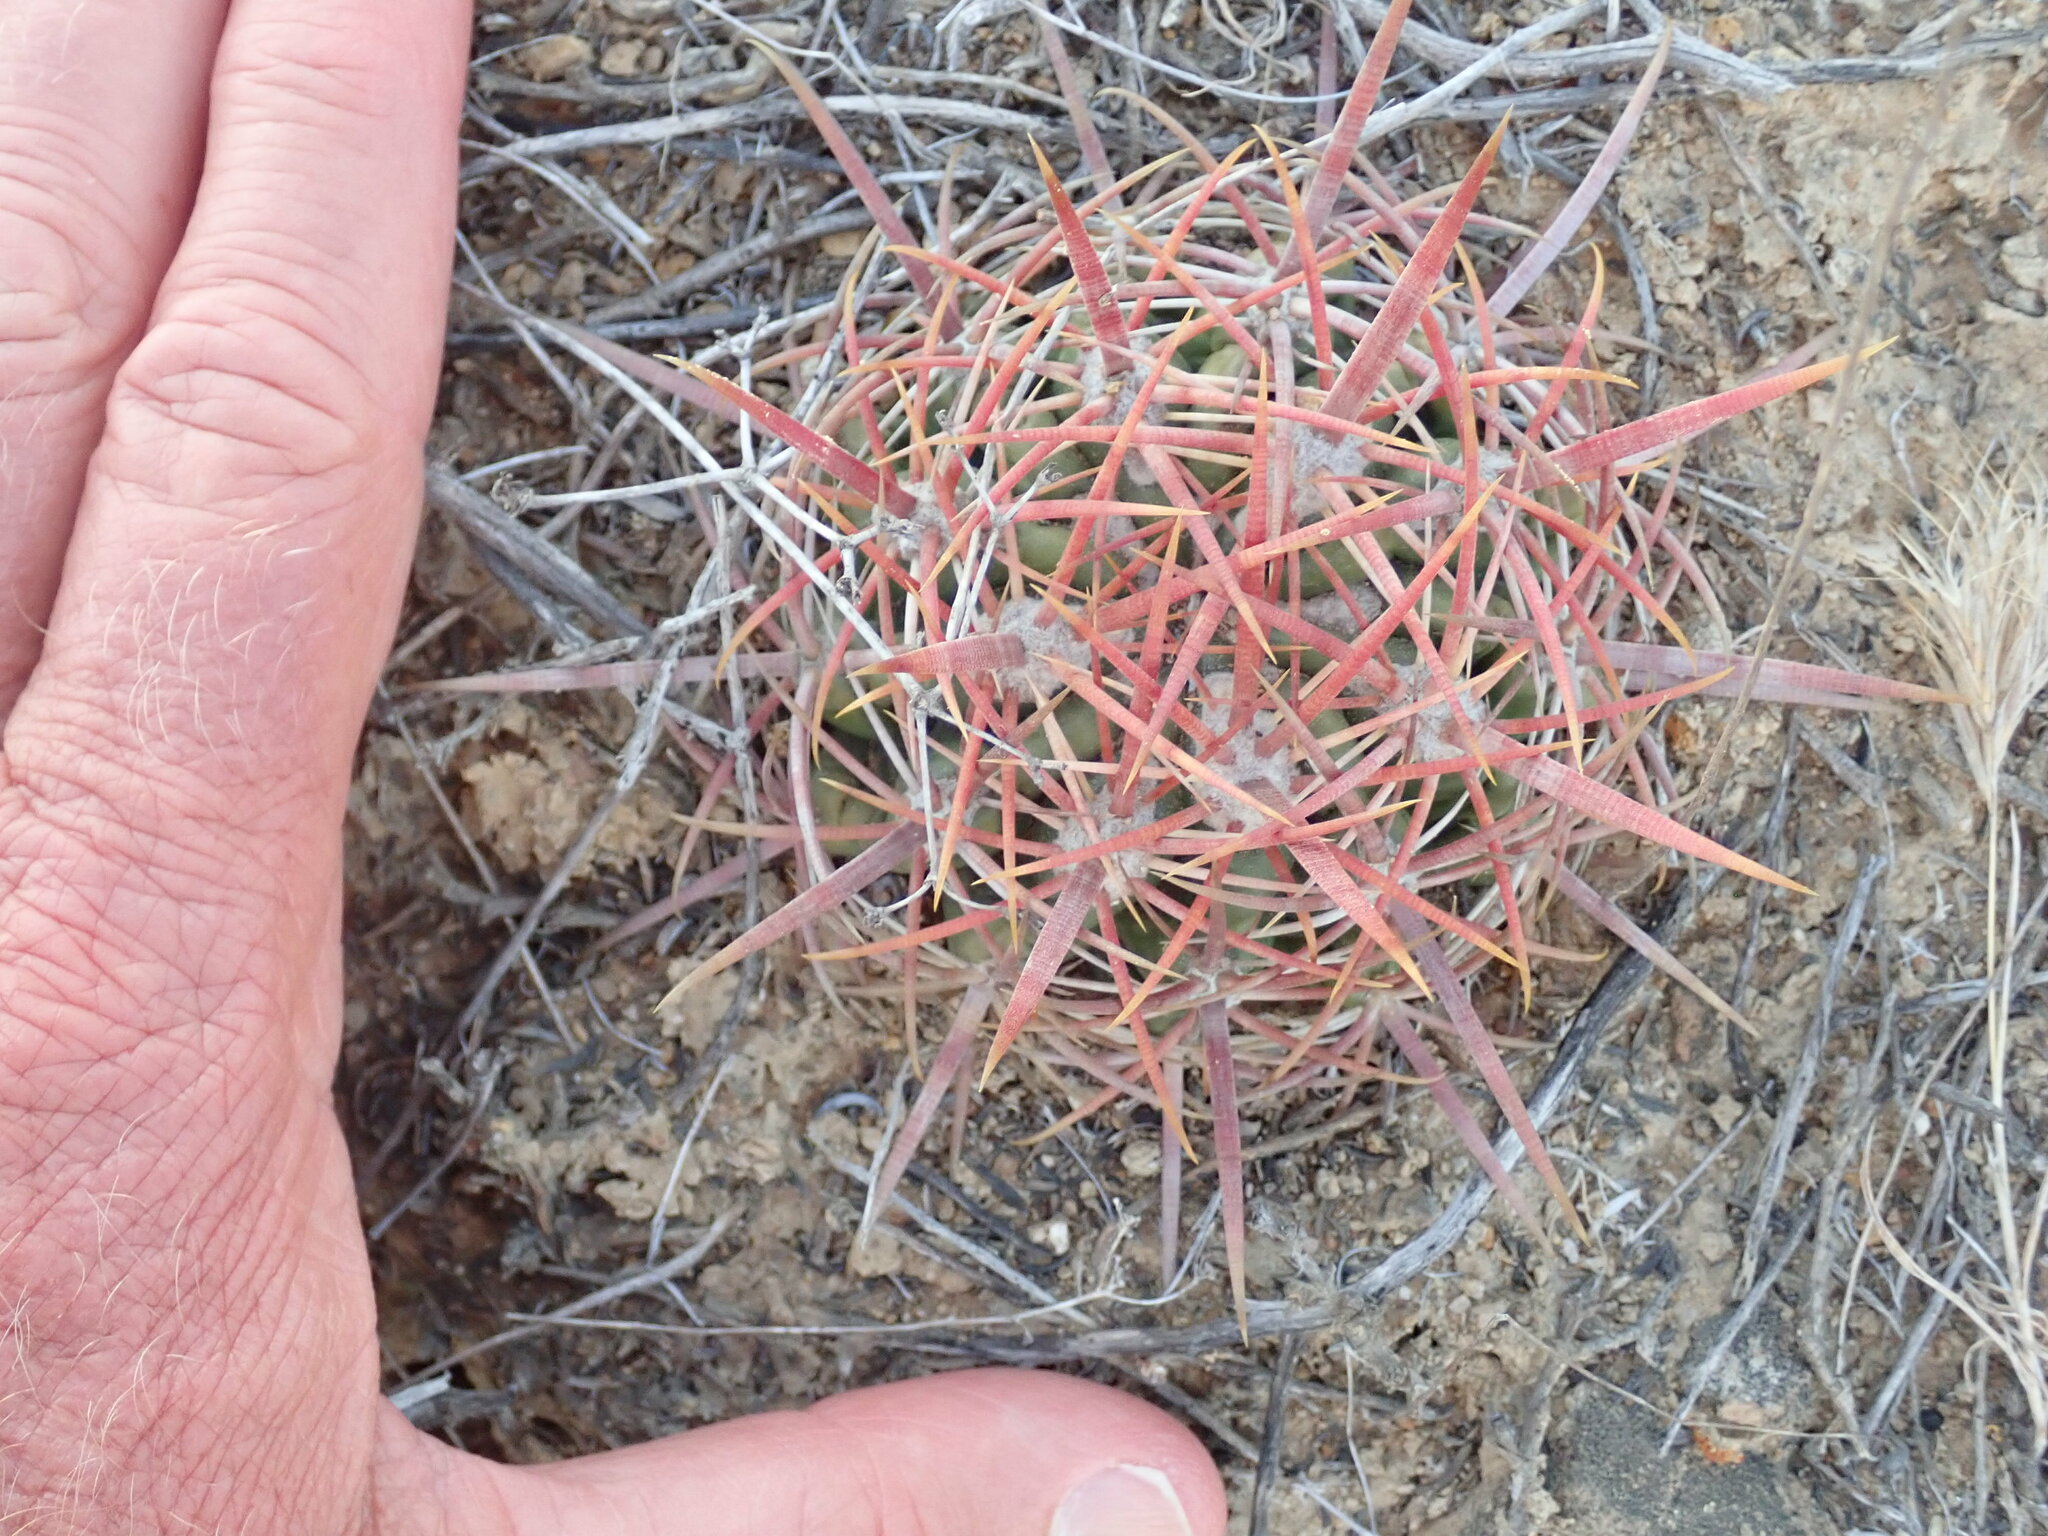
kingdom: Plantae
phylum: Tracheophyta
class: Magnoliopsida
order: Caryophyllales
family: Cactaceae
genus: Ferocactus
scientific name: Ferocactus viridescens
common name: San diego barrel cactus
